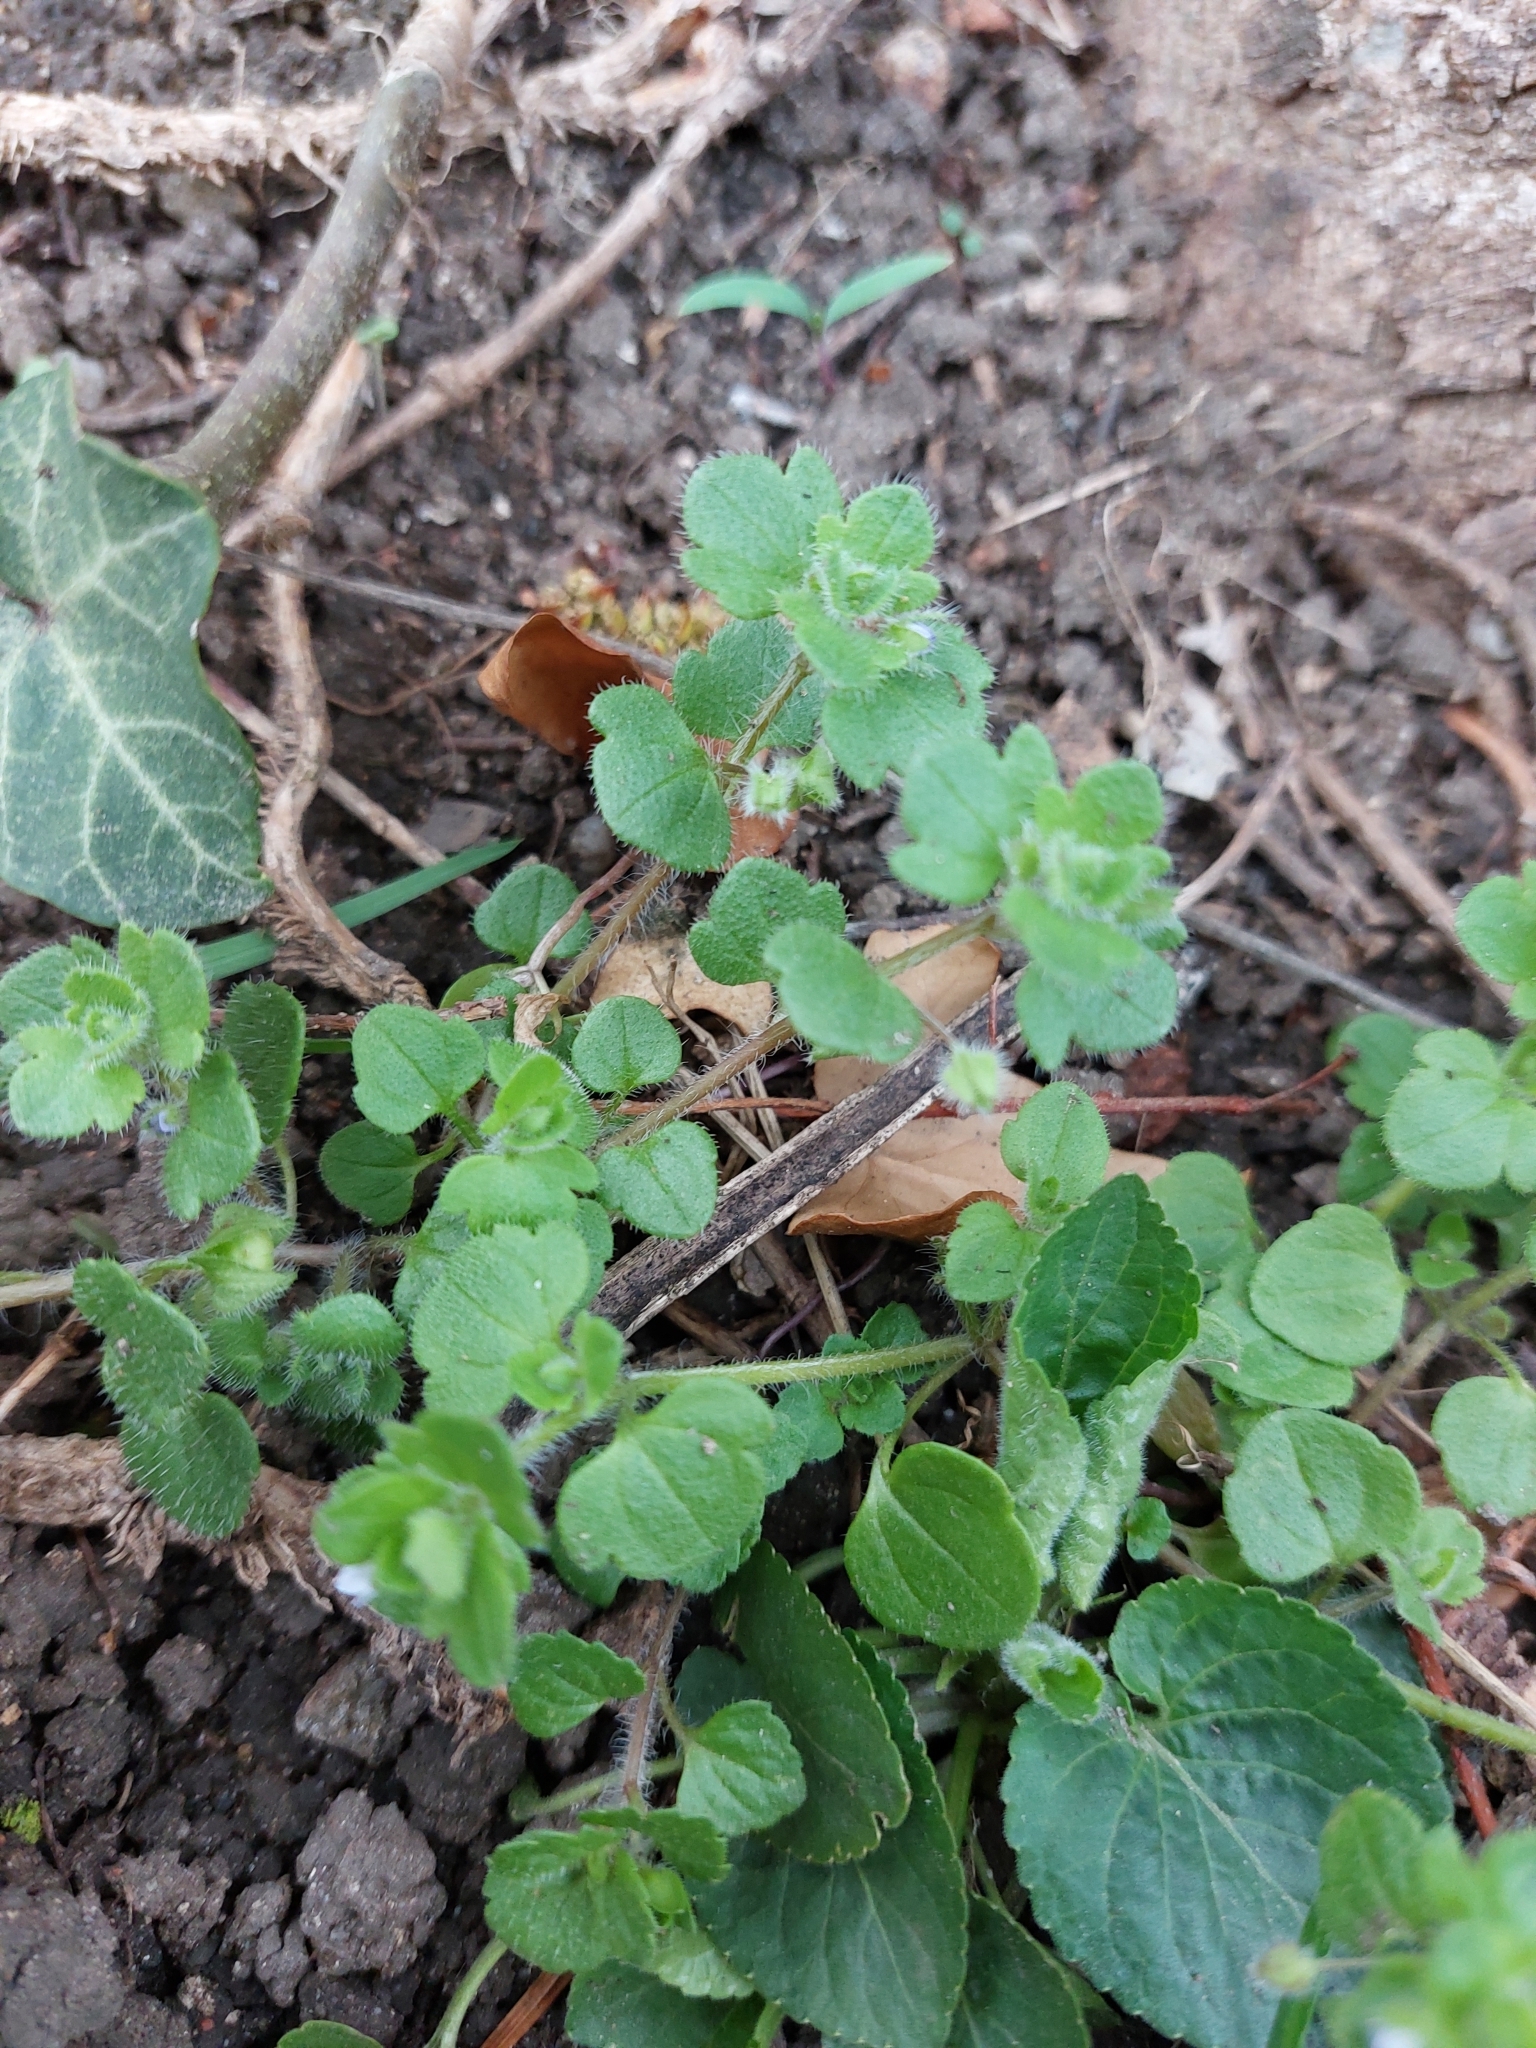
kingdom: Plantae
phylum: Tracheophyta
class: Magnoliopsida
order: Lamiales
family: Plantaginaceae
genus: Veronica
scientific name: Veronica hederifolia
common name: Ivy-leaved speedwell
